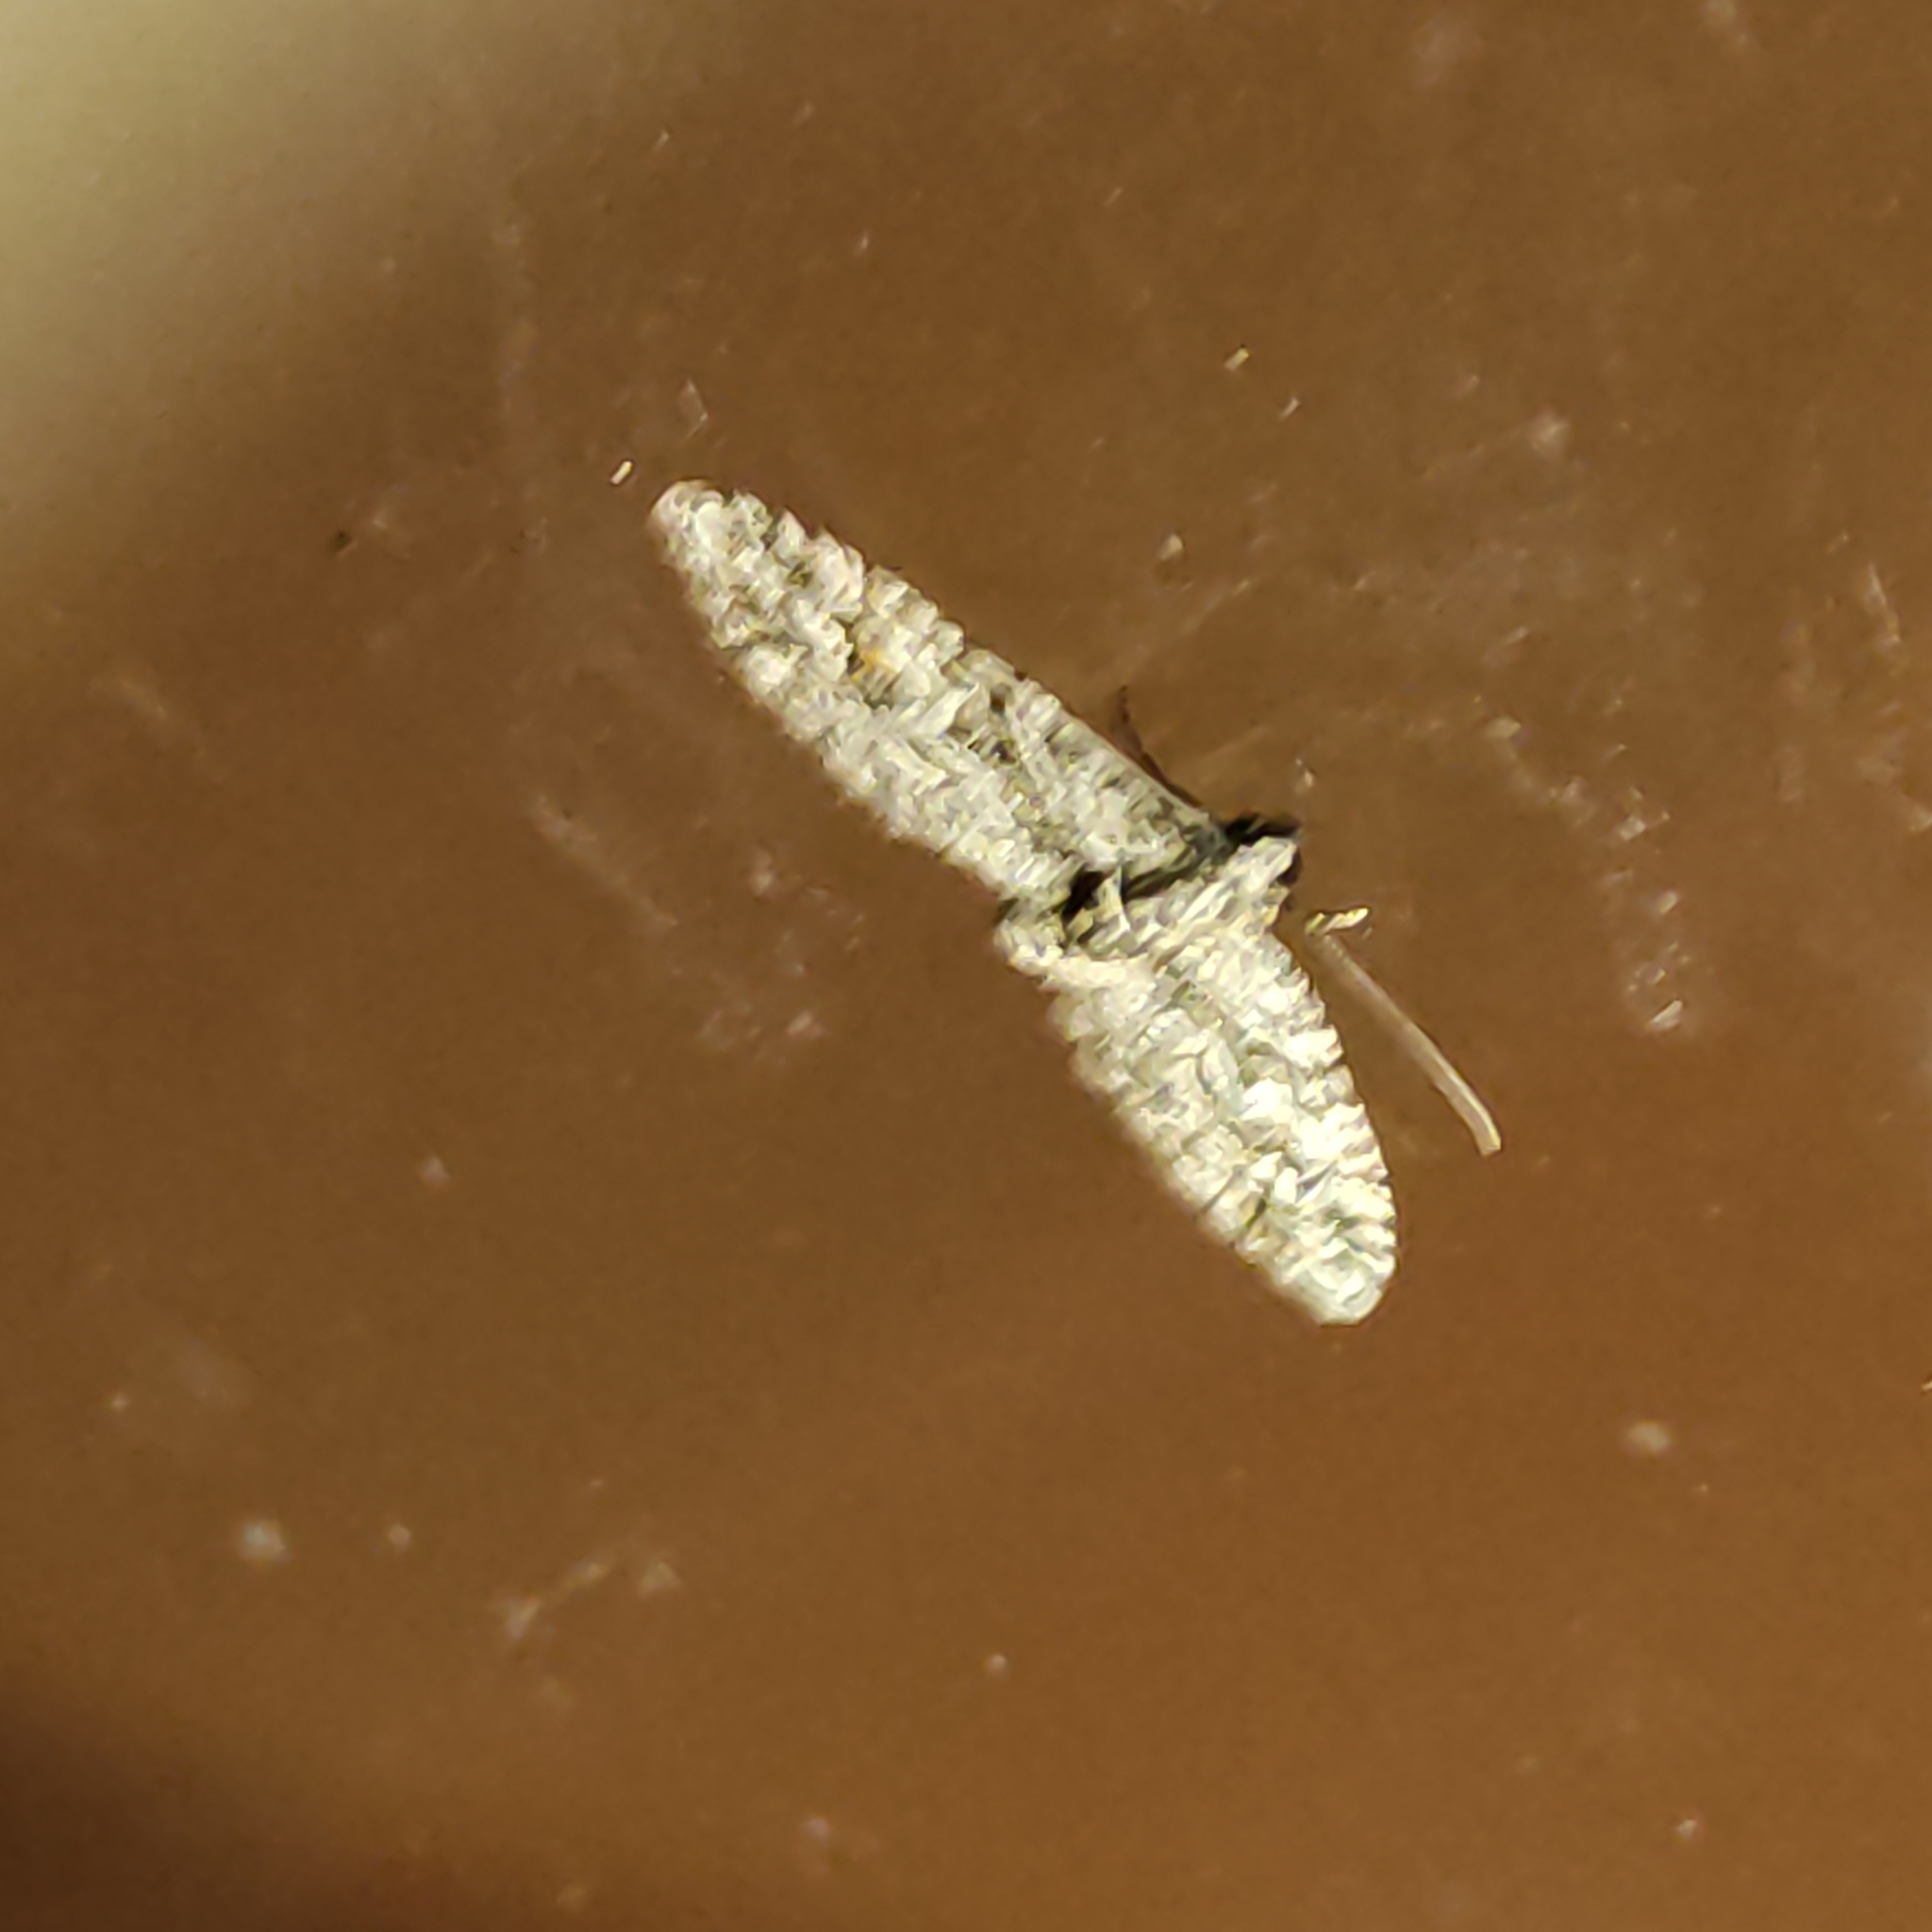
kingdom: Animalia
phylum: Arthropoda
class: Insecta
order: Lepidoptera
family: Geometridae
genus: Phrissogonus
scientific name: Phrissogonus laticostata
